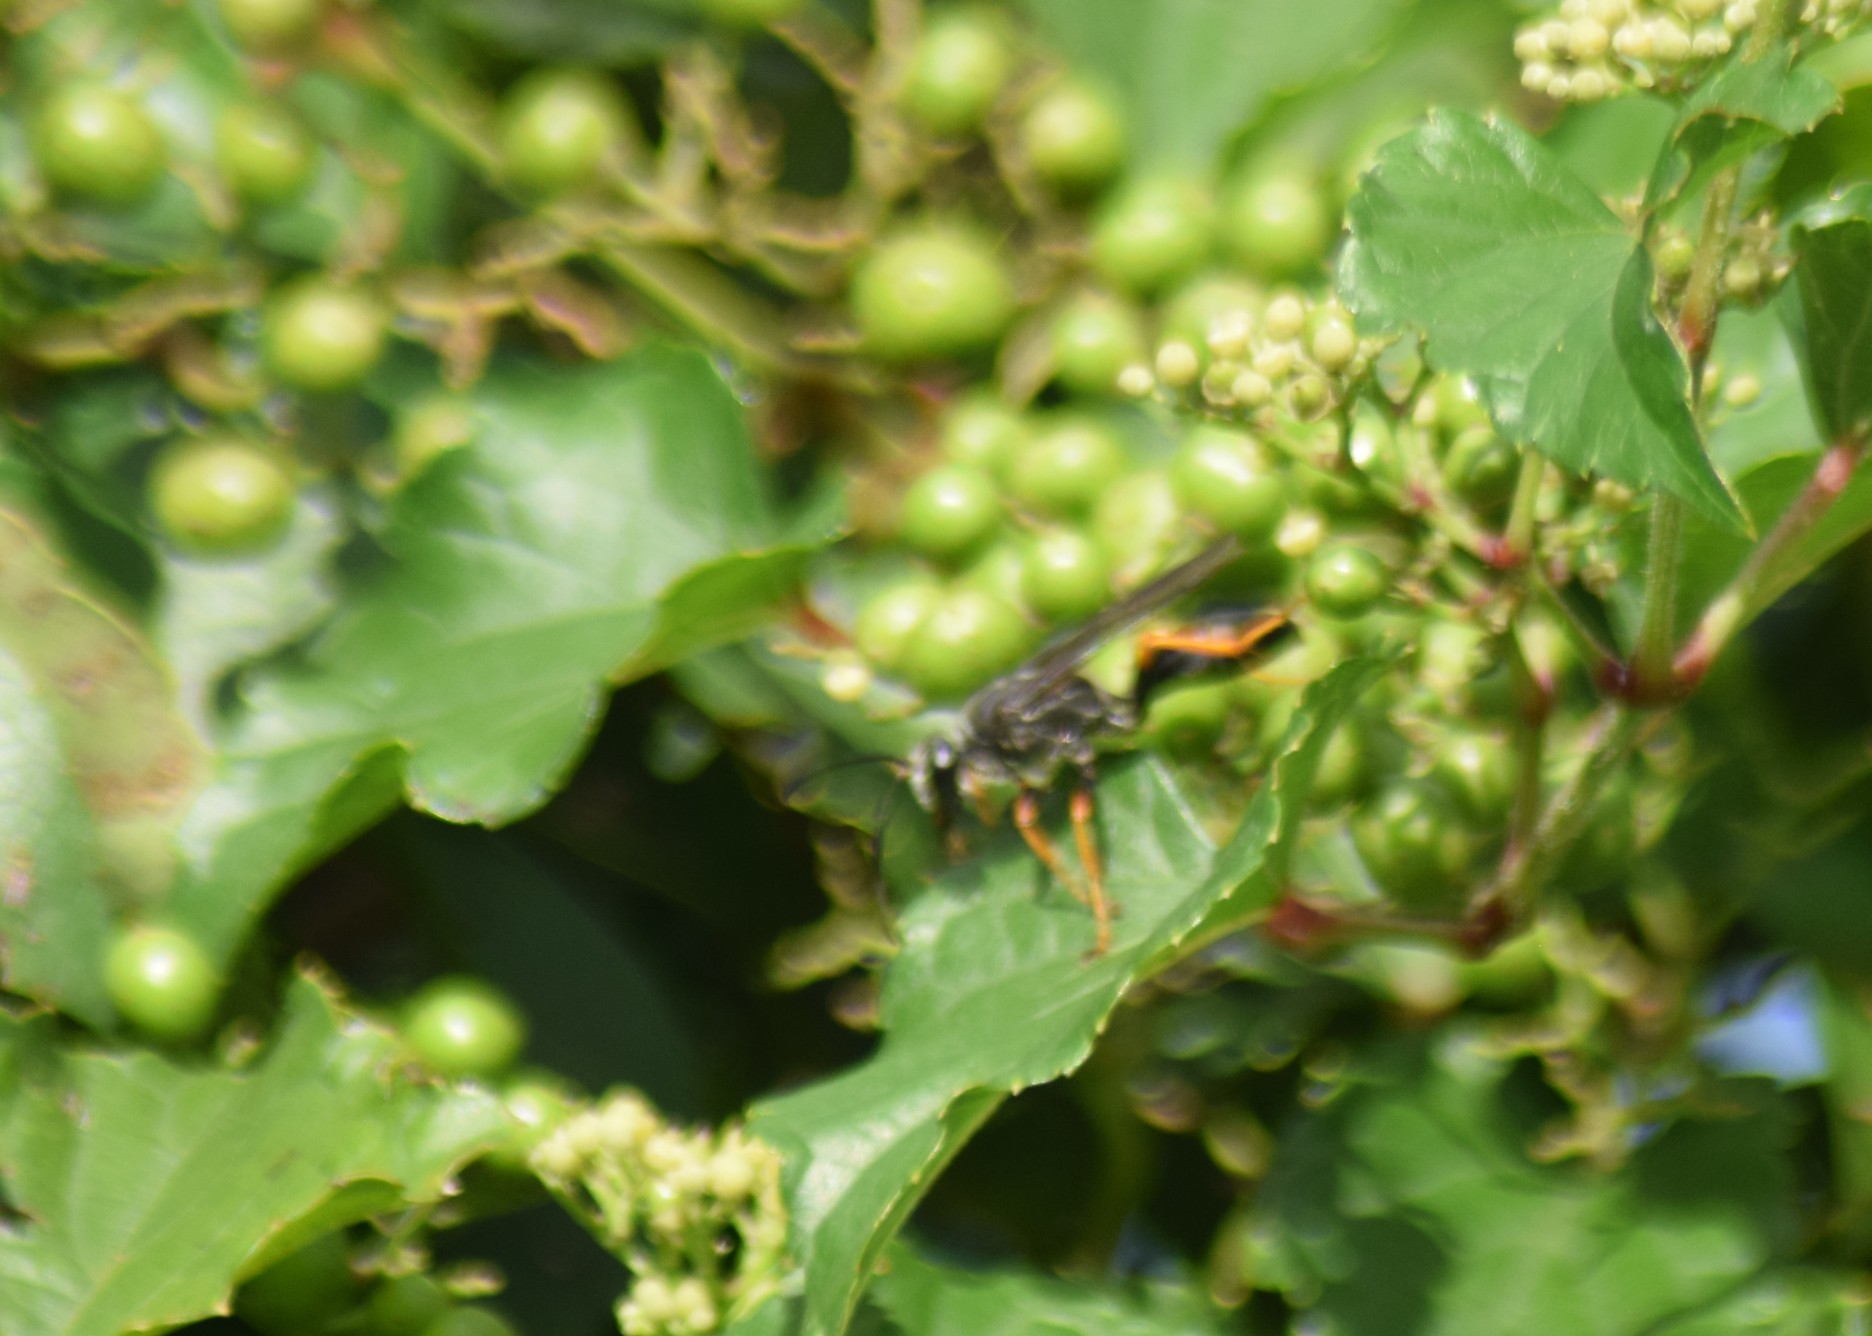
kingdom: Animalia
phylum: Arthropoda
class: Insecta
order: Hymenoptera
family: Sphecidae
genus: Sphex
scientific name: Sphex nudus
